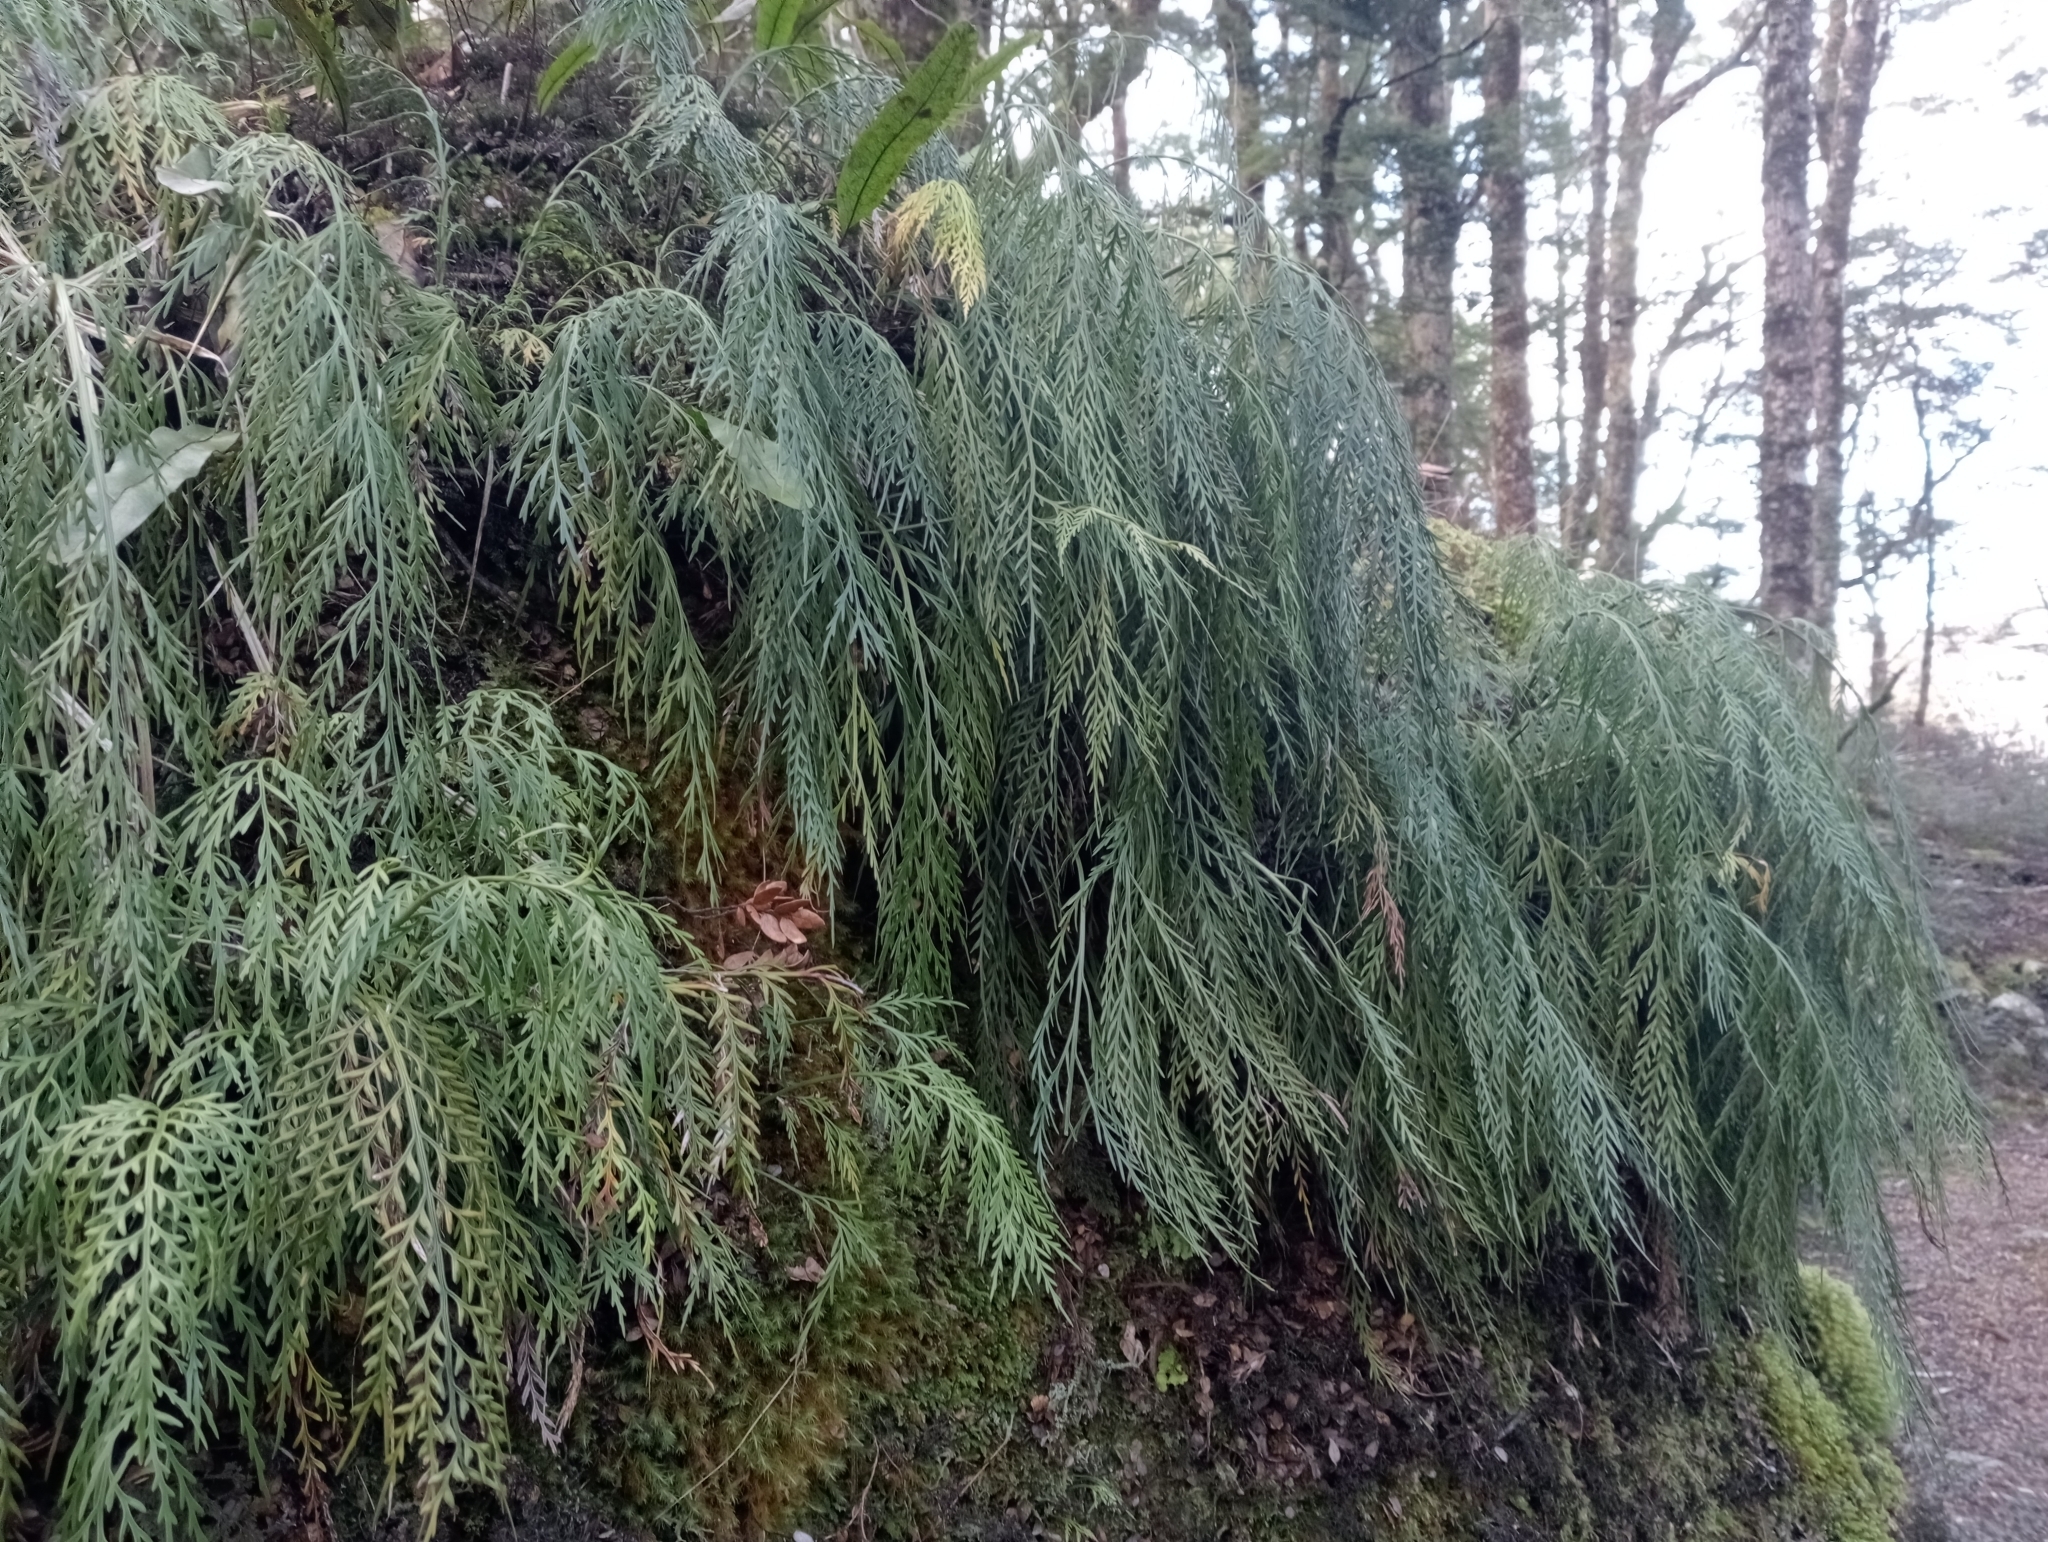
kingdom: Plantae
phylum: Tracheophyta
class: Polypodiopsida
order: Polypodiales
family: Aspleniaceae
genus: Asplenium
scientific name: Asplenium flaccidum
